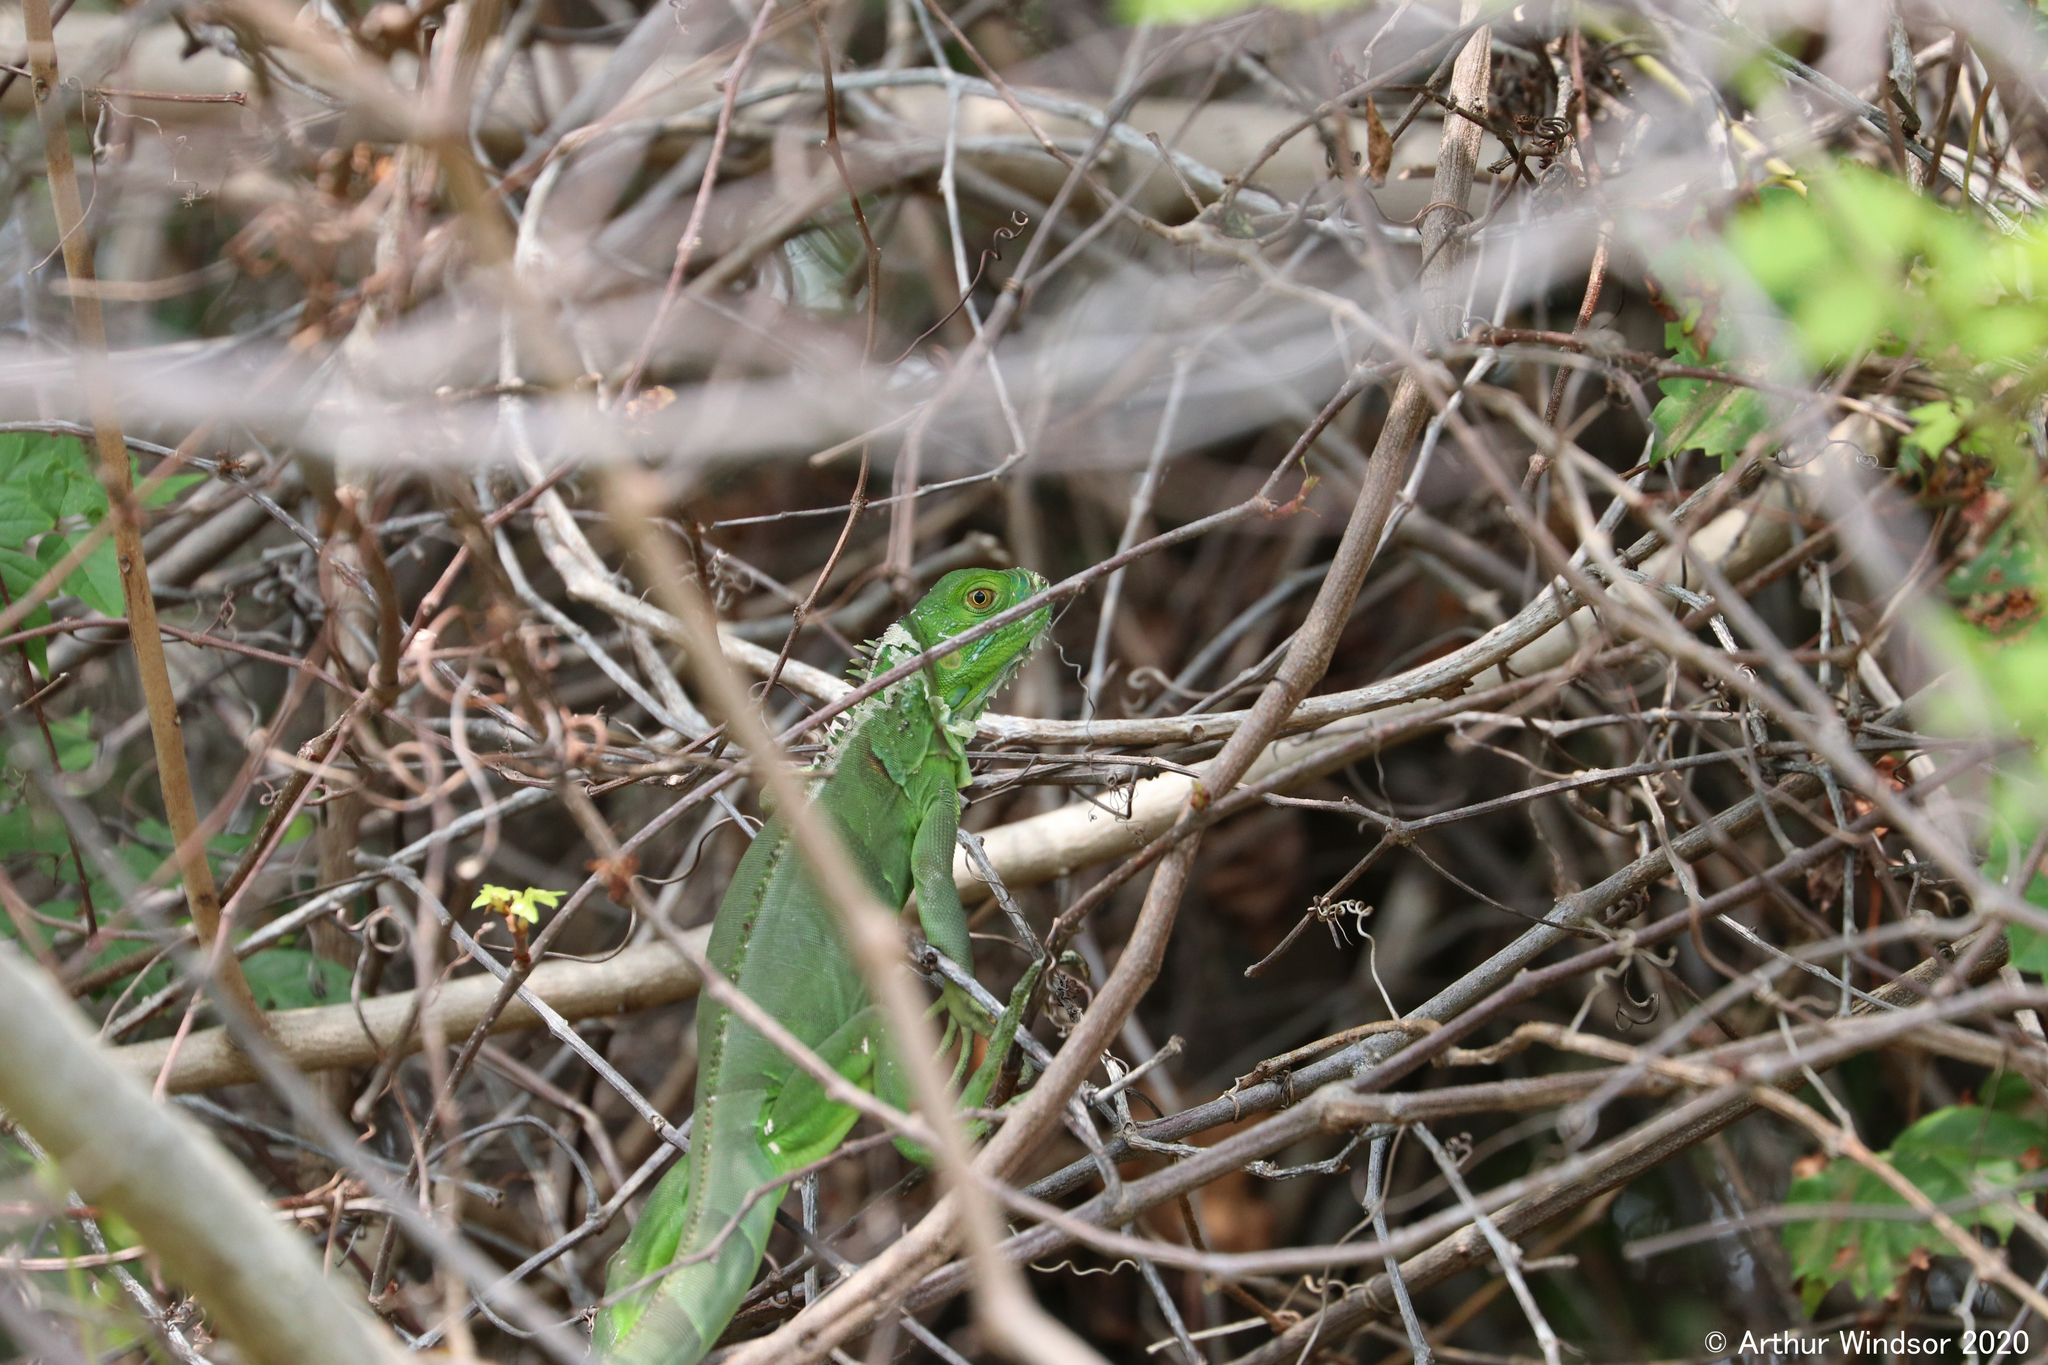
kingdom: Animalia
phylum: Chordata
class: Squamata
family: Iguanidae
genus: Iguana
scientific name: Iguana iguana
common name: Green iguana
